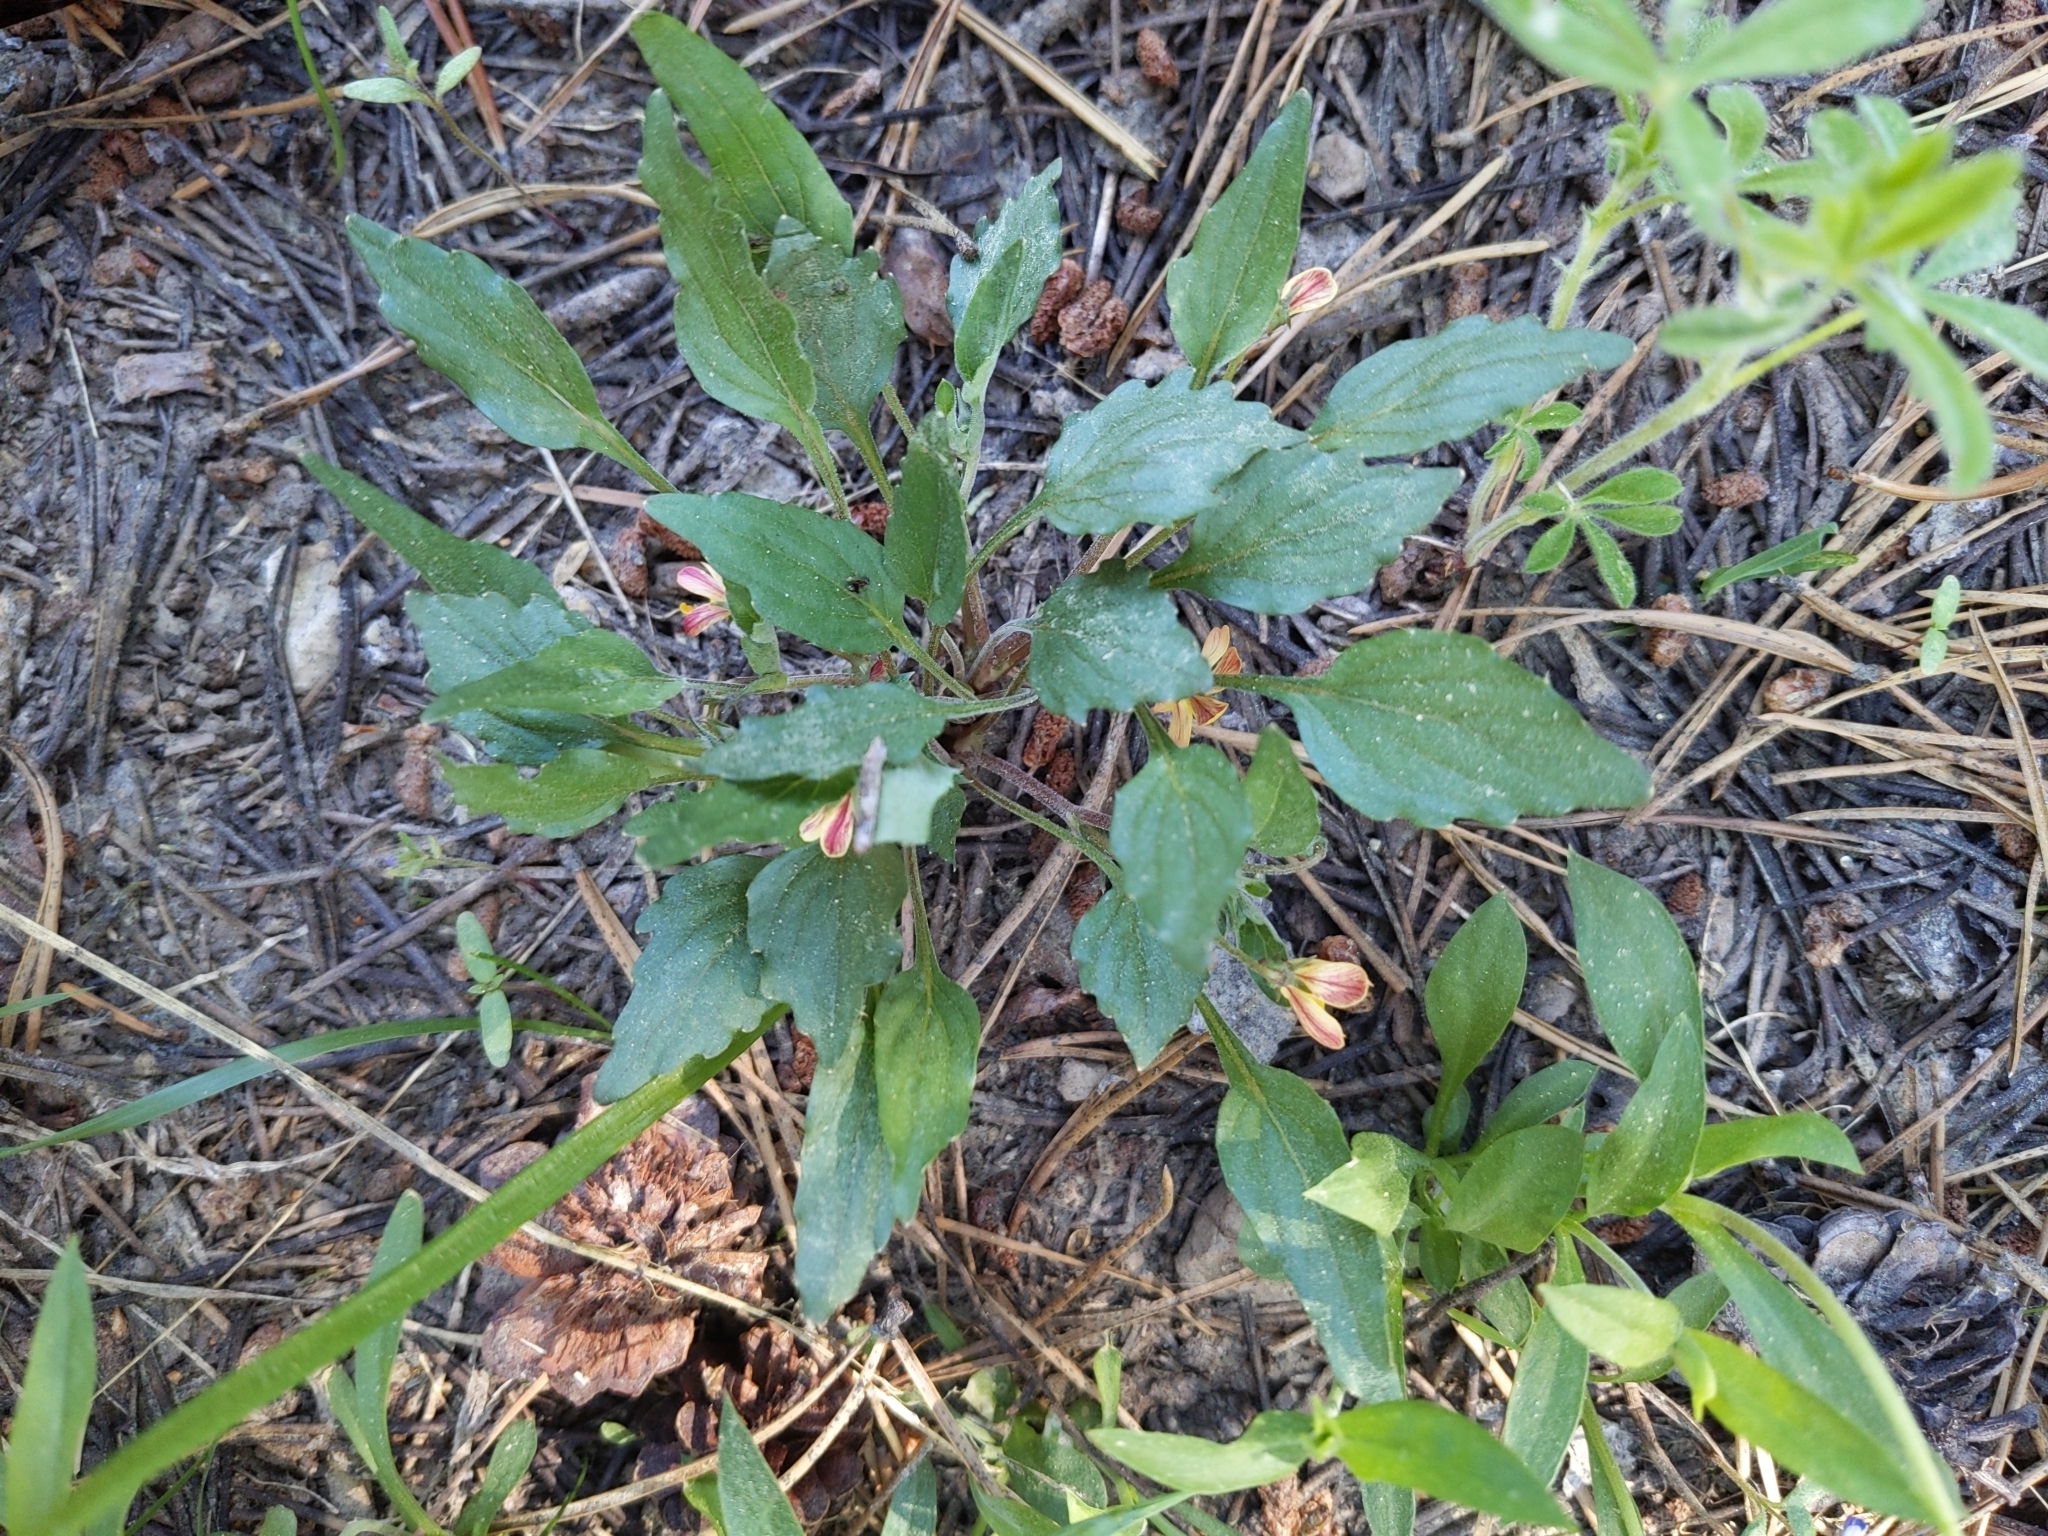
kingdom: Plantae
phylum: Tracheophyta
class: Magnoliopsida
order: Malpighiales
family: Violaceae
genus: Viola
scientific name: Viola pinetorum
